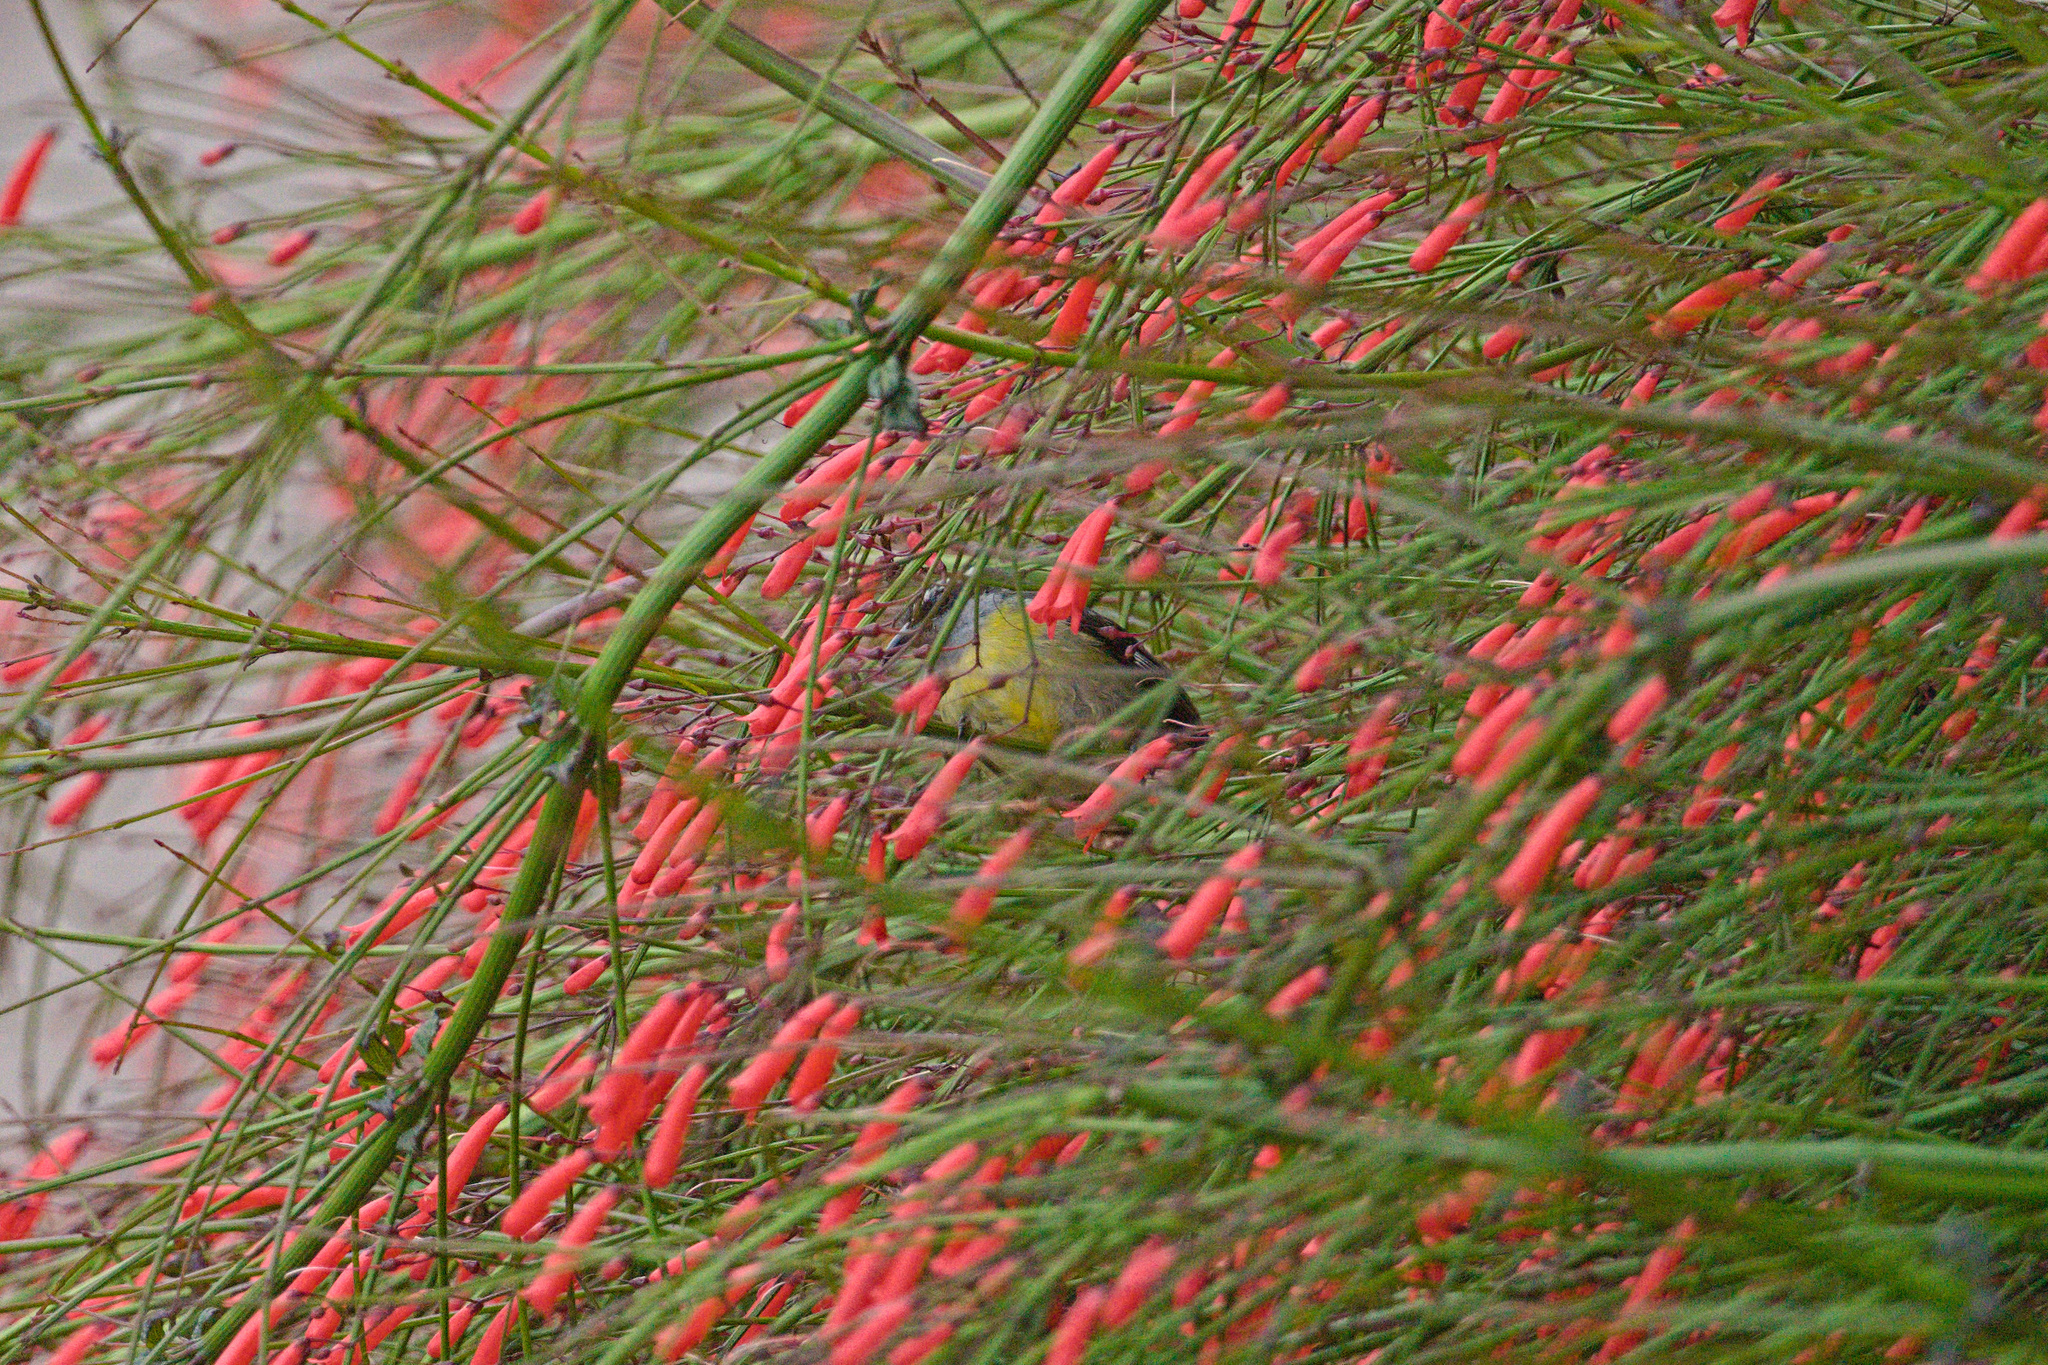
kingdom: Animalia
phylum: Chordata
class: Aves
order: Passeriformes
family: Thraupidae
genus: Coereba
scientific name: Coereba flaveola
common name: Bananaquit
